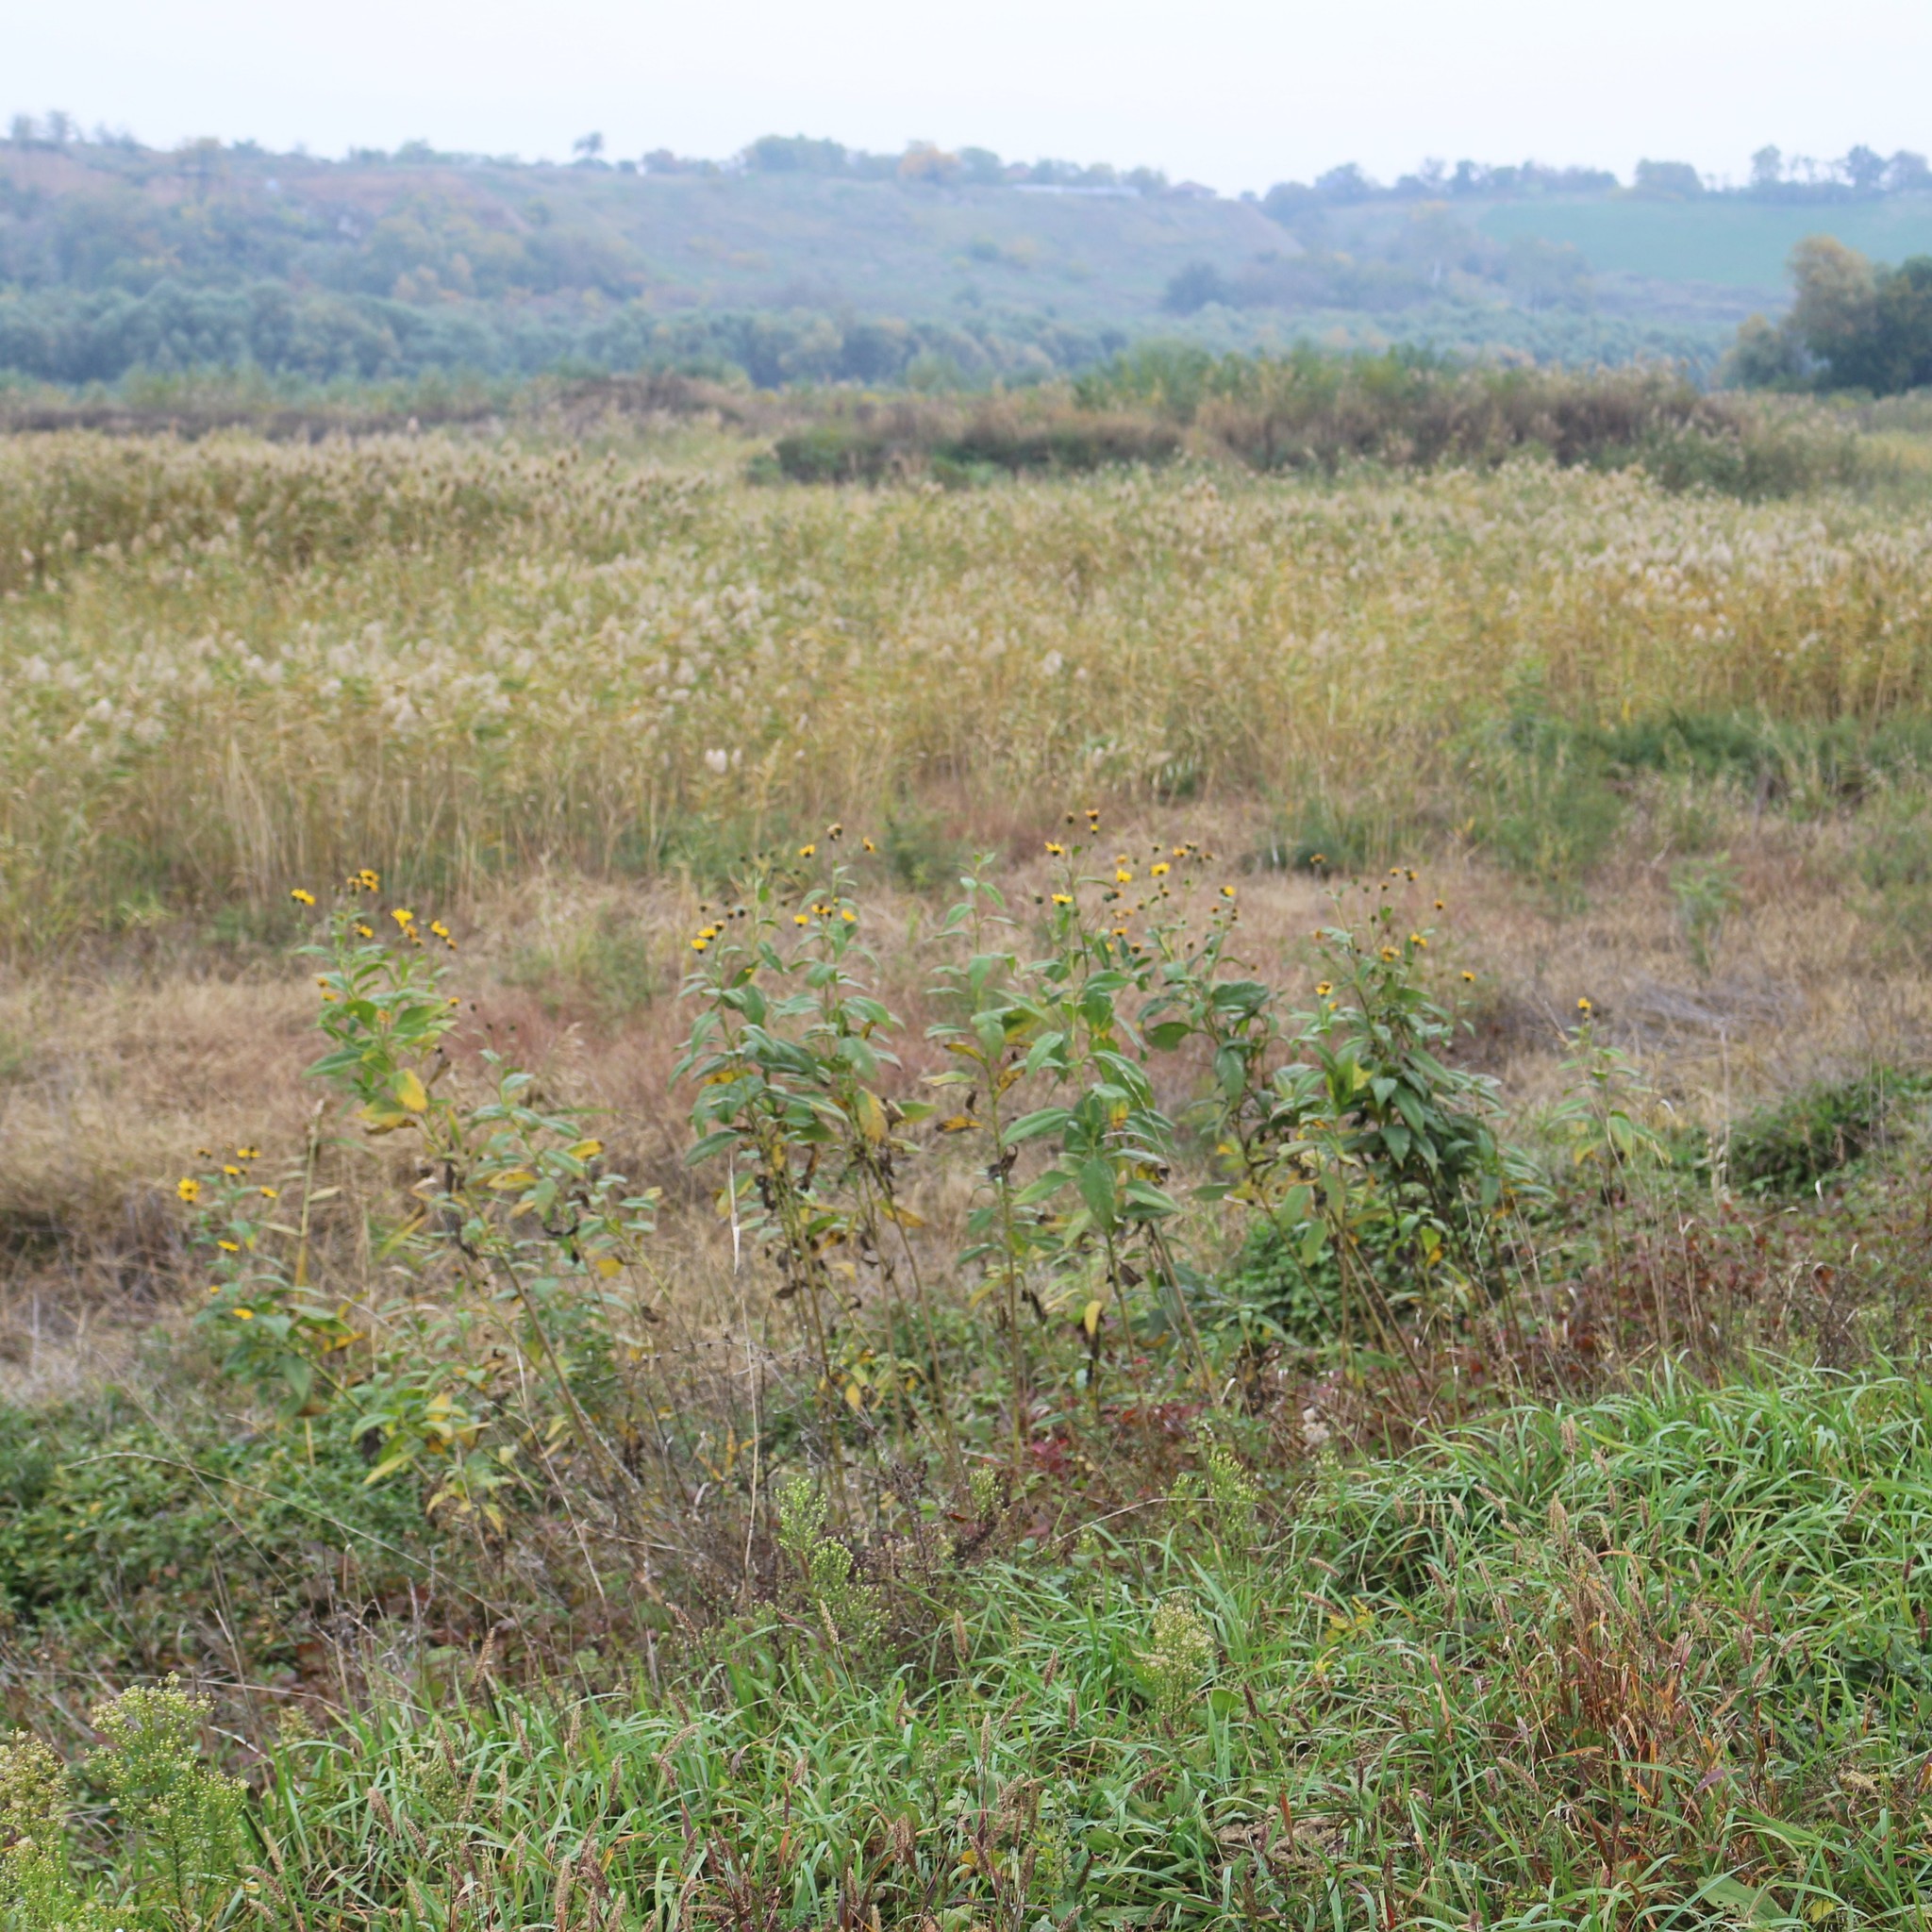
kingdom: Plantae
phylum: Tracheophyta
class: Magnoliopsida
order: Asterales
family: Asteraceae
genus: Helianthus
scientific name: Helianthus tuberosus
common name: Jerusalem artichoke
